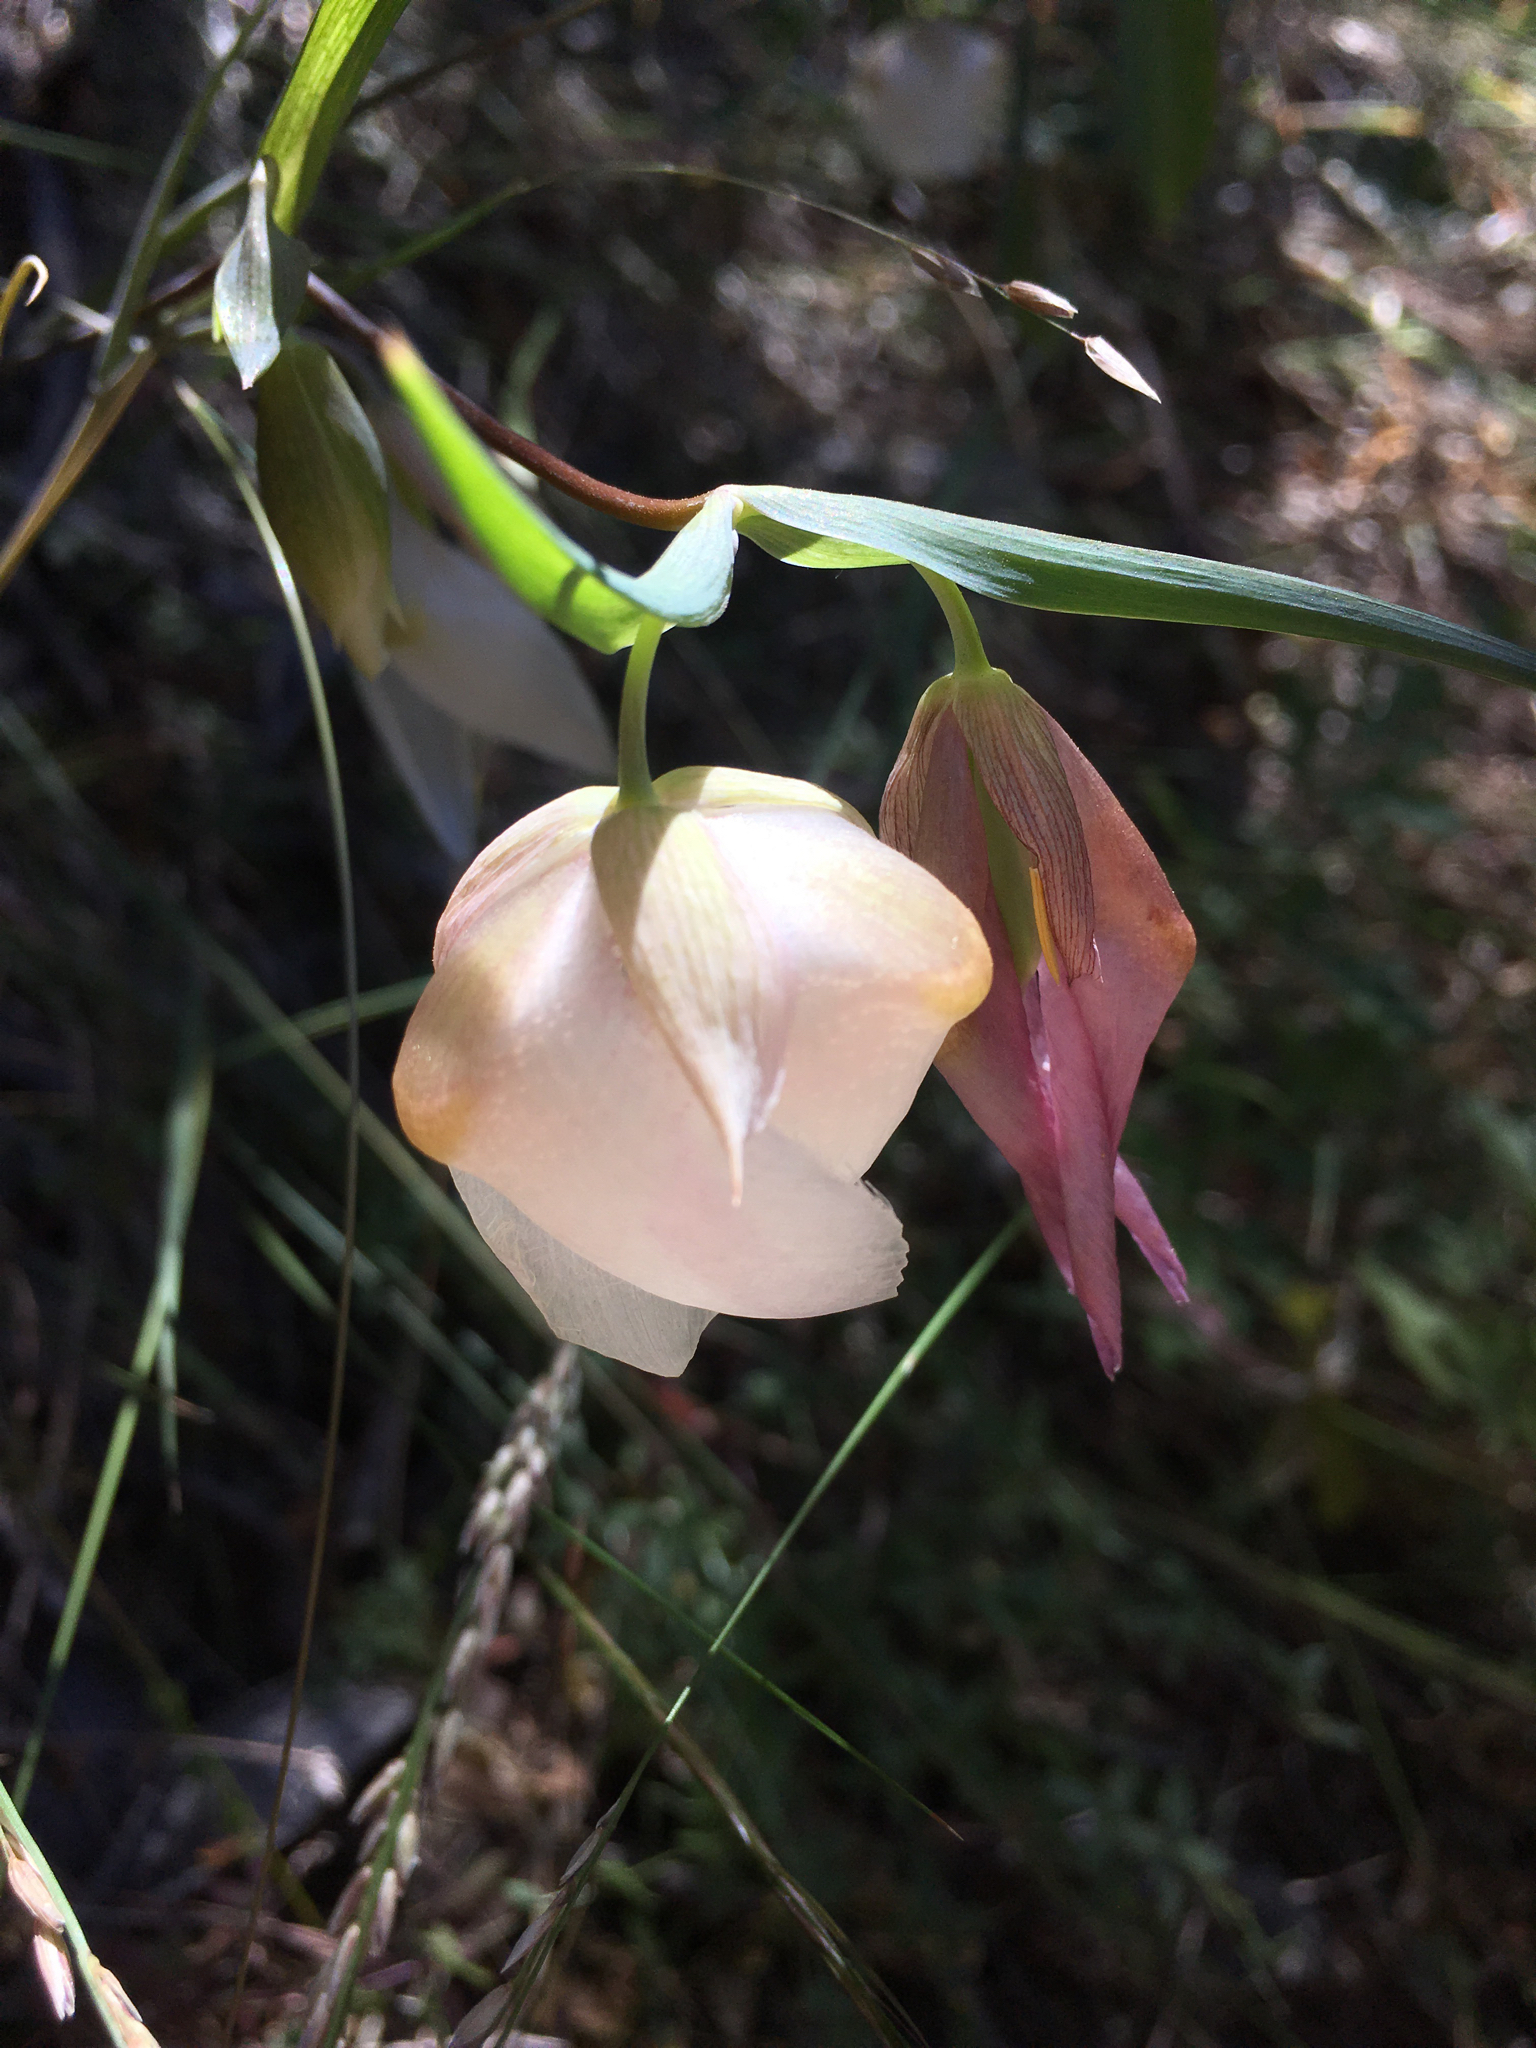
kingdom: Plantae
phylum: Tracheophyta
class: Liliopsida
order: Liliales
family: Liliaceae
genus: Calochortus
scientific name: Calochortus albus
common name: Fairy-lantern
